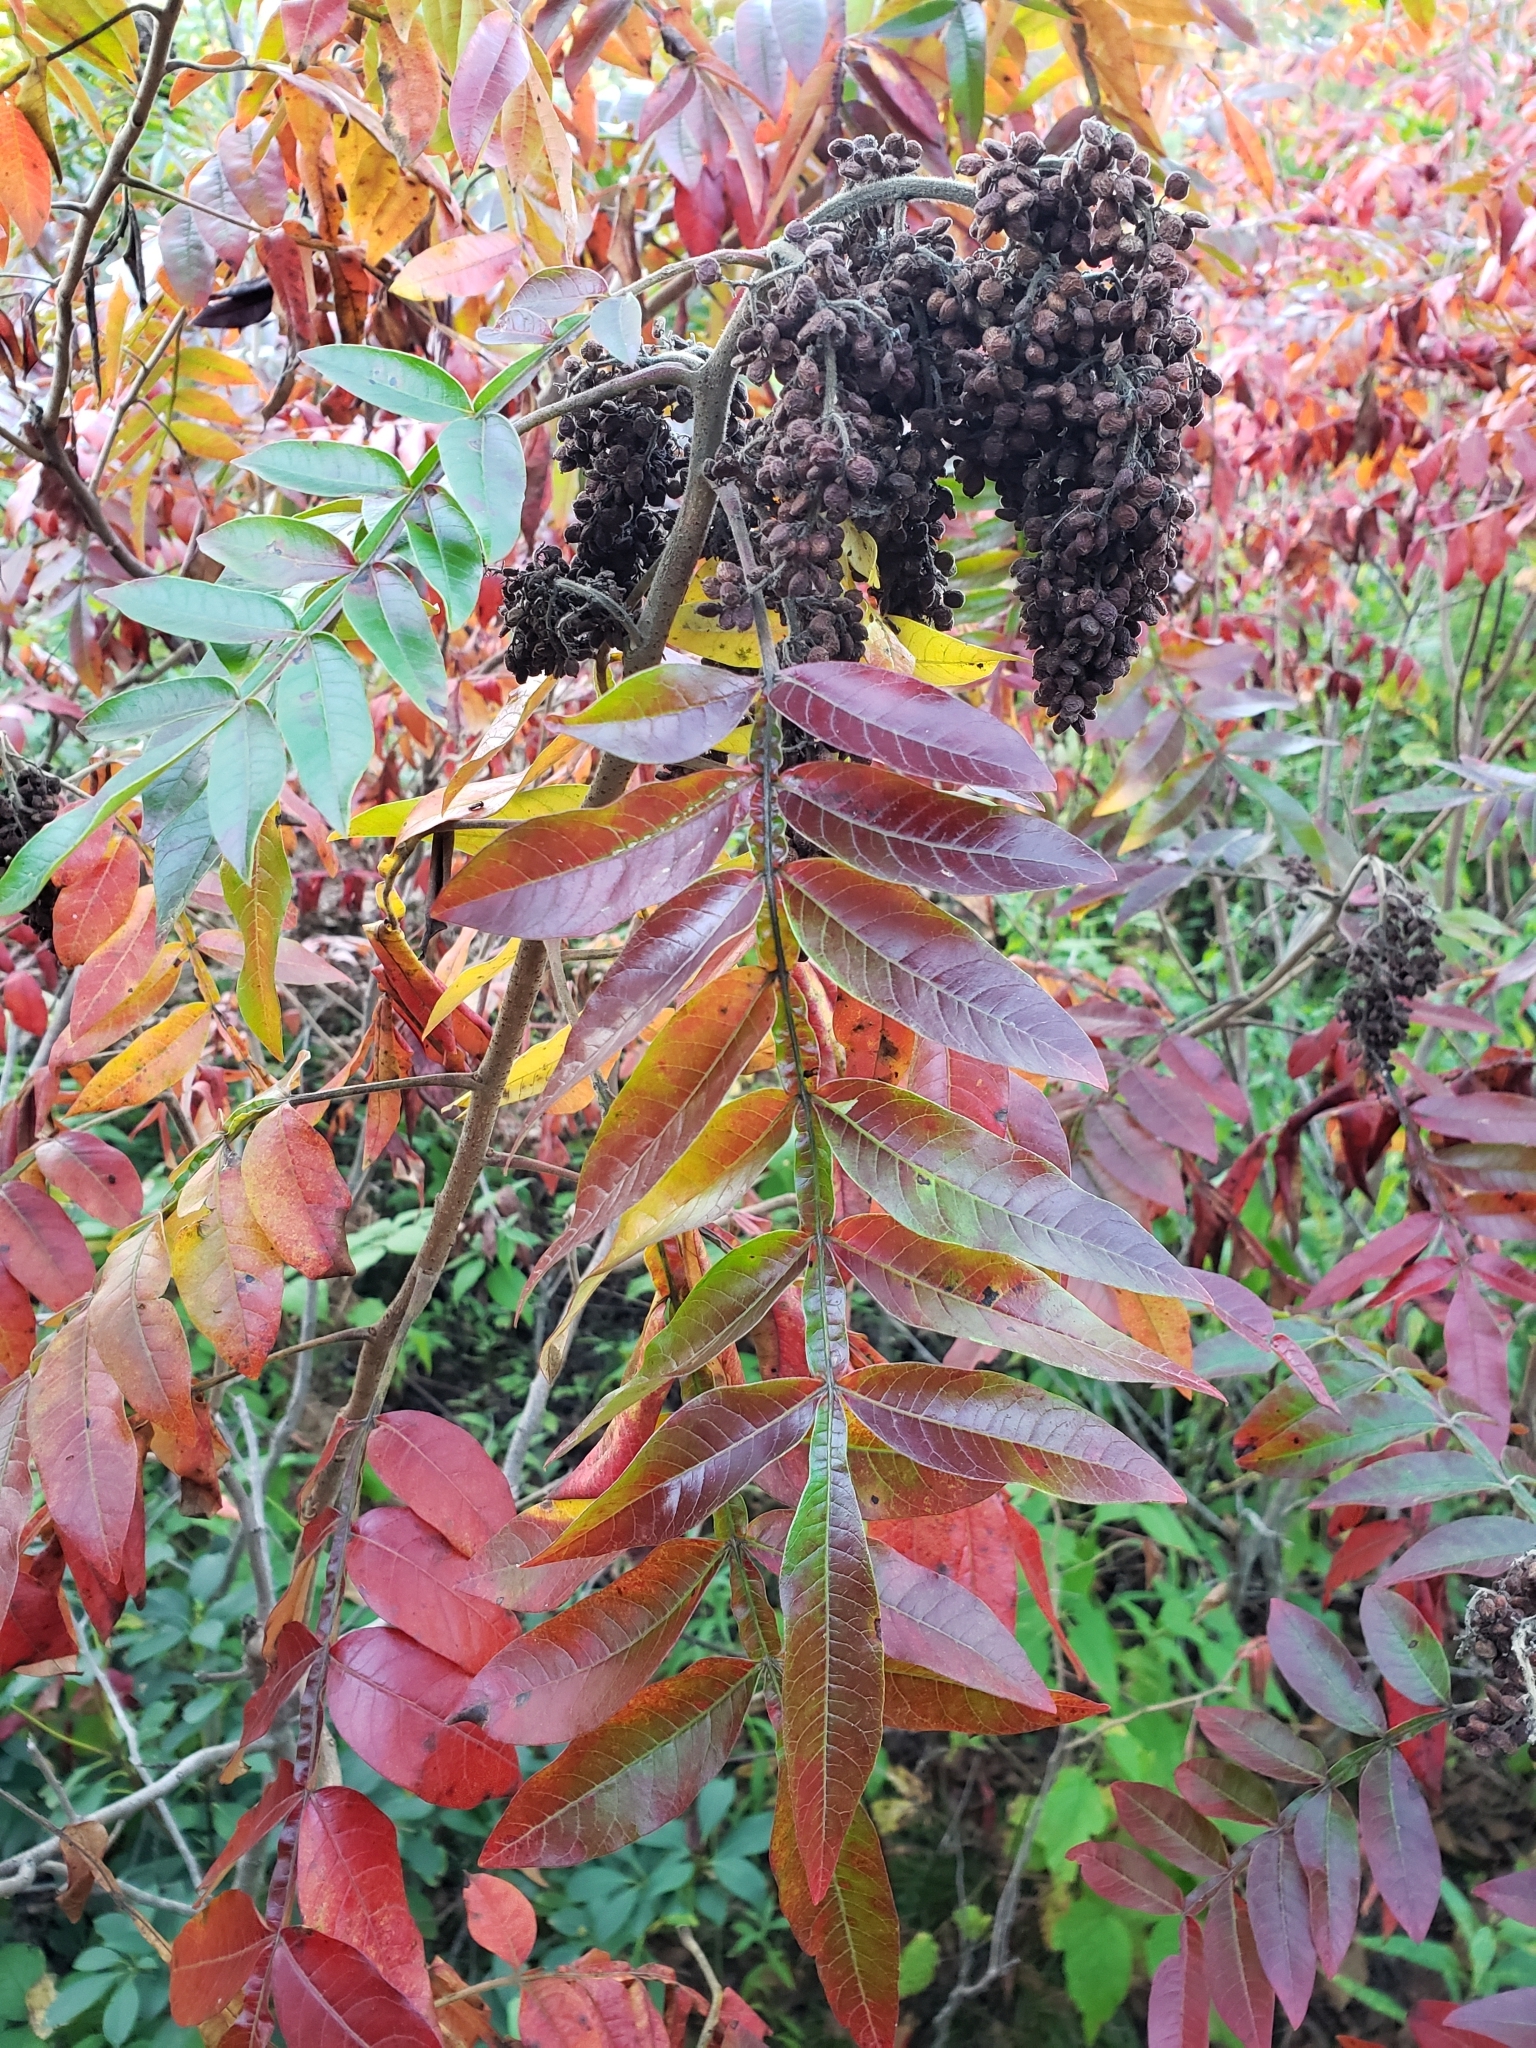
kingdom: Plantae
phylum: Tracheophyta
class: Magnoliopsida
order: Sapindales
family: Anacardiaceae
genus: Rhus
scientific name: Rhus copallina
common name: Shining sumac
